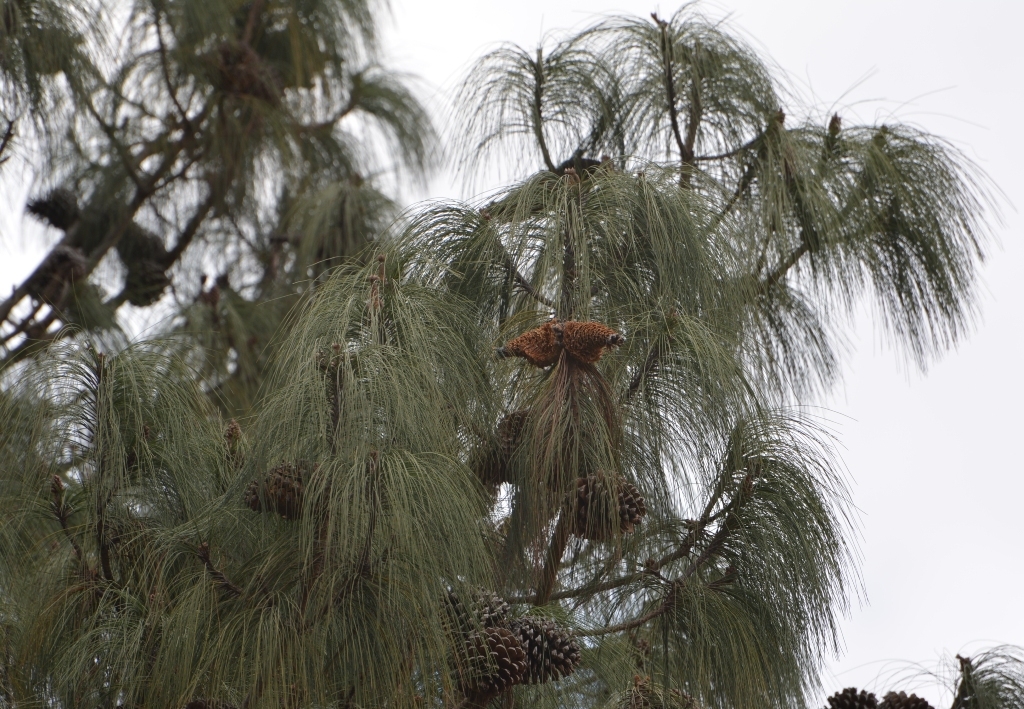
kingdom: Plantae
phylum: Tracheophyta
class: Pinopsida
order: Pinales
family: Pinaceae
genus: Pinus
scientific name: Pinus montezumae
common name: Montezuma pine
